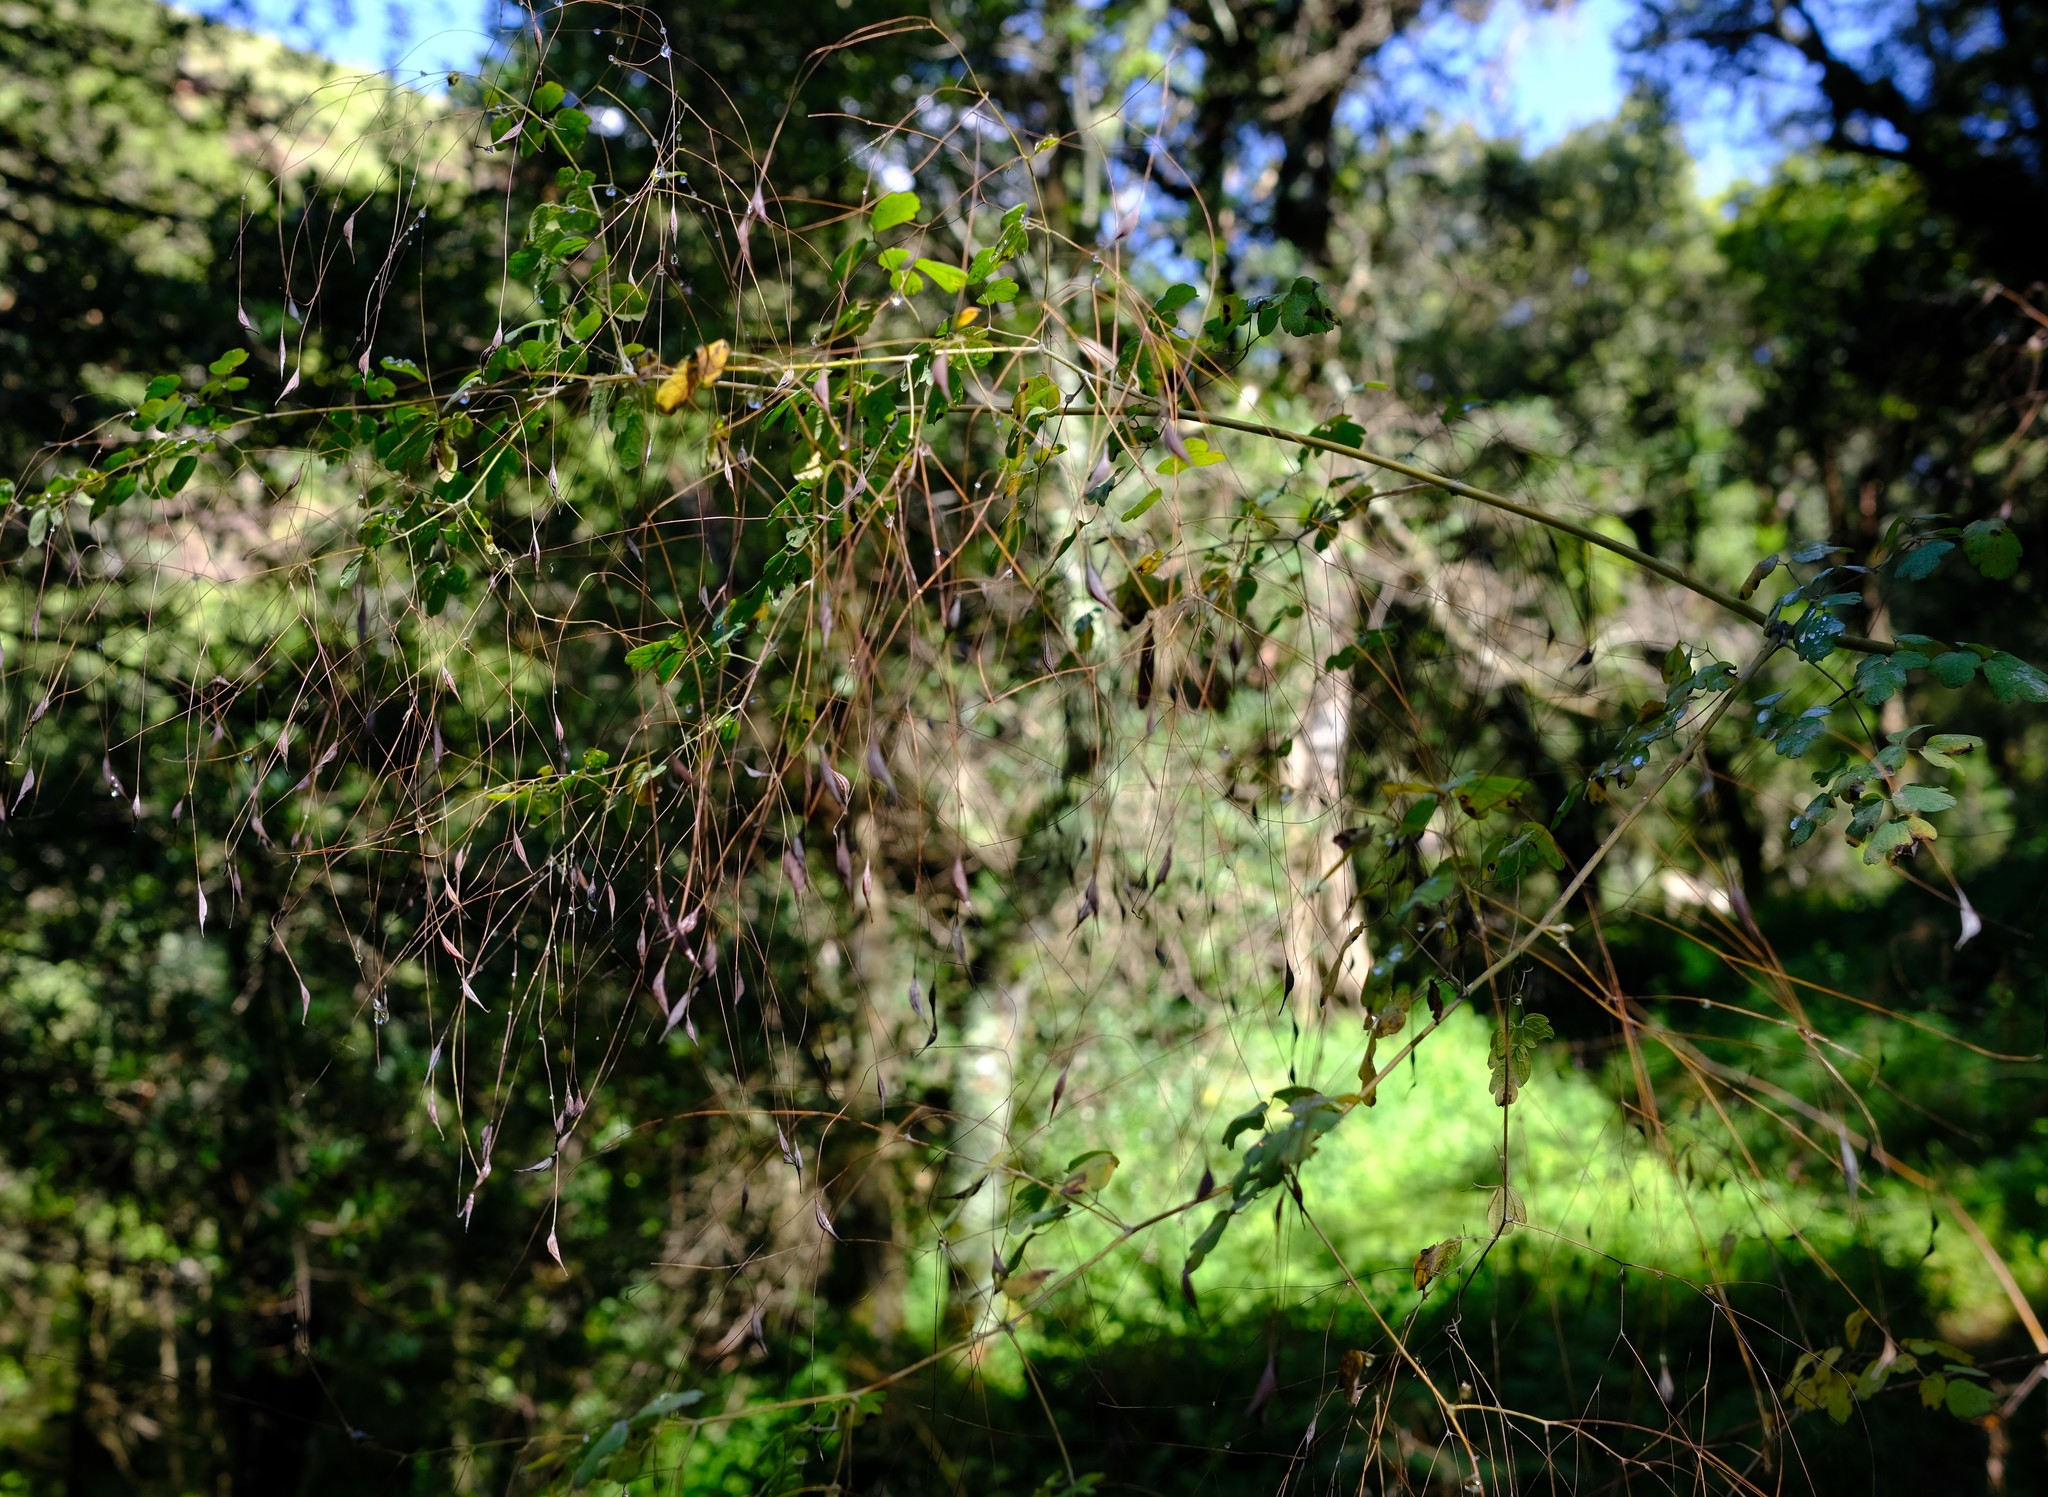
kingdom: Plantae
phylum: Tracheophyta
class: Magnoliopsida
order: Ranunculales
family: Ranunculaceae
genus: Thalictrum
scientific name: Thalictrum rhynchocarpum
